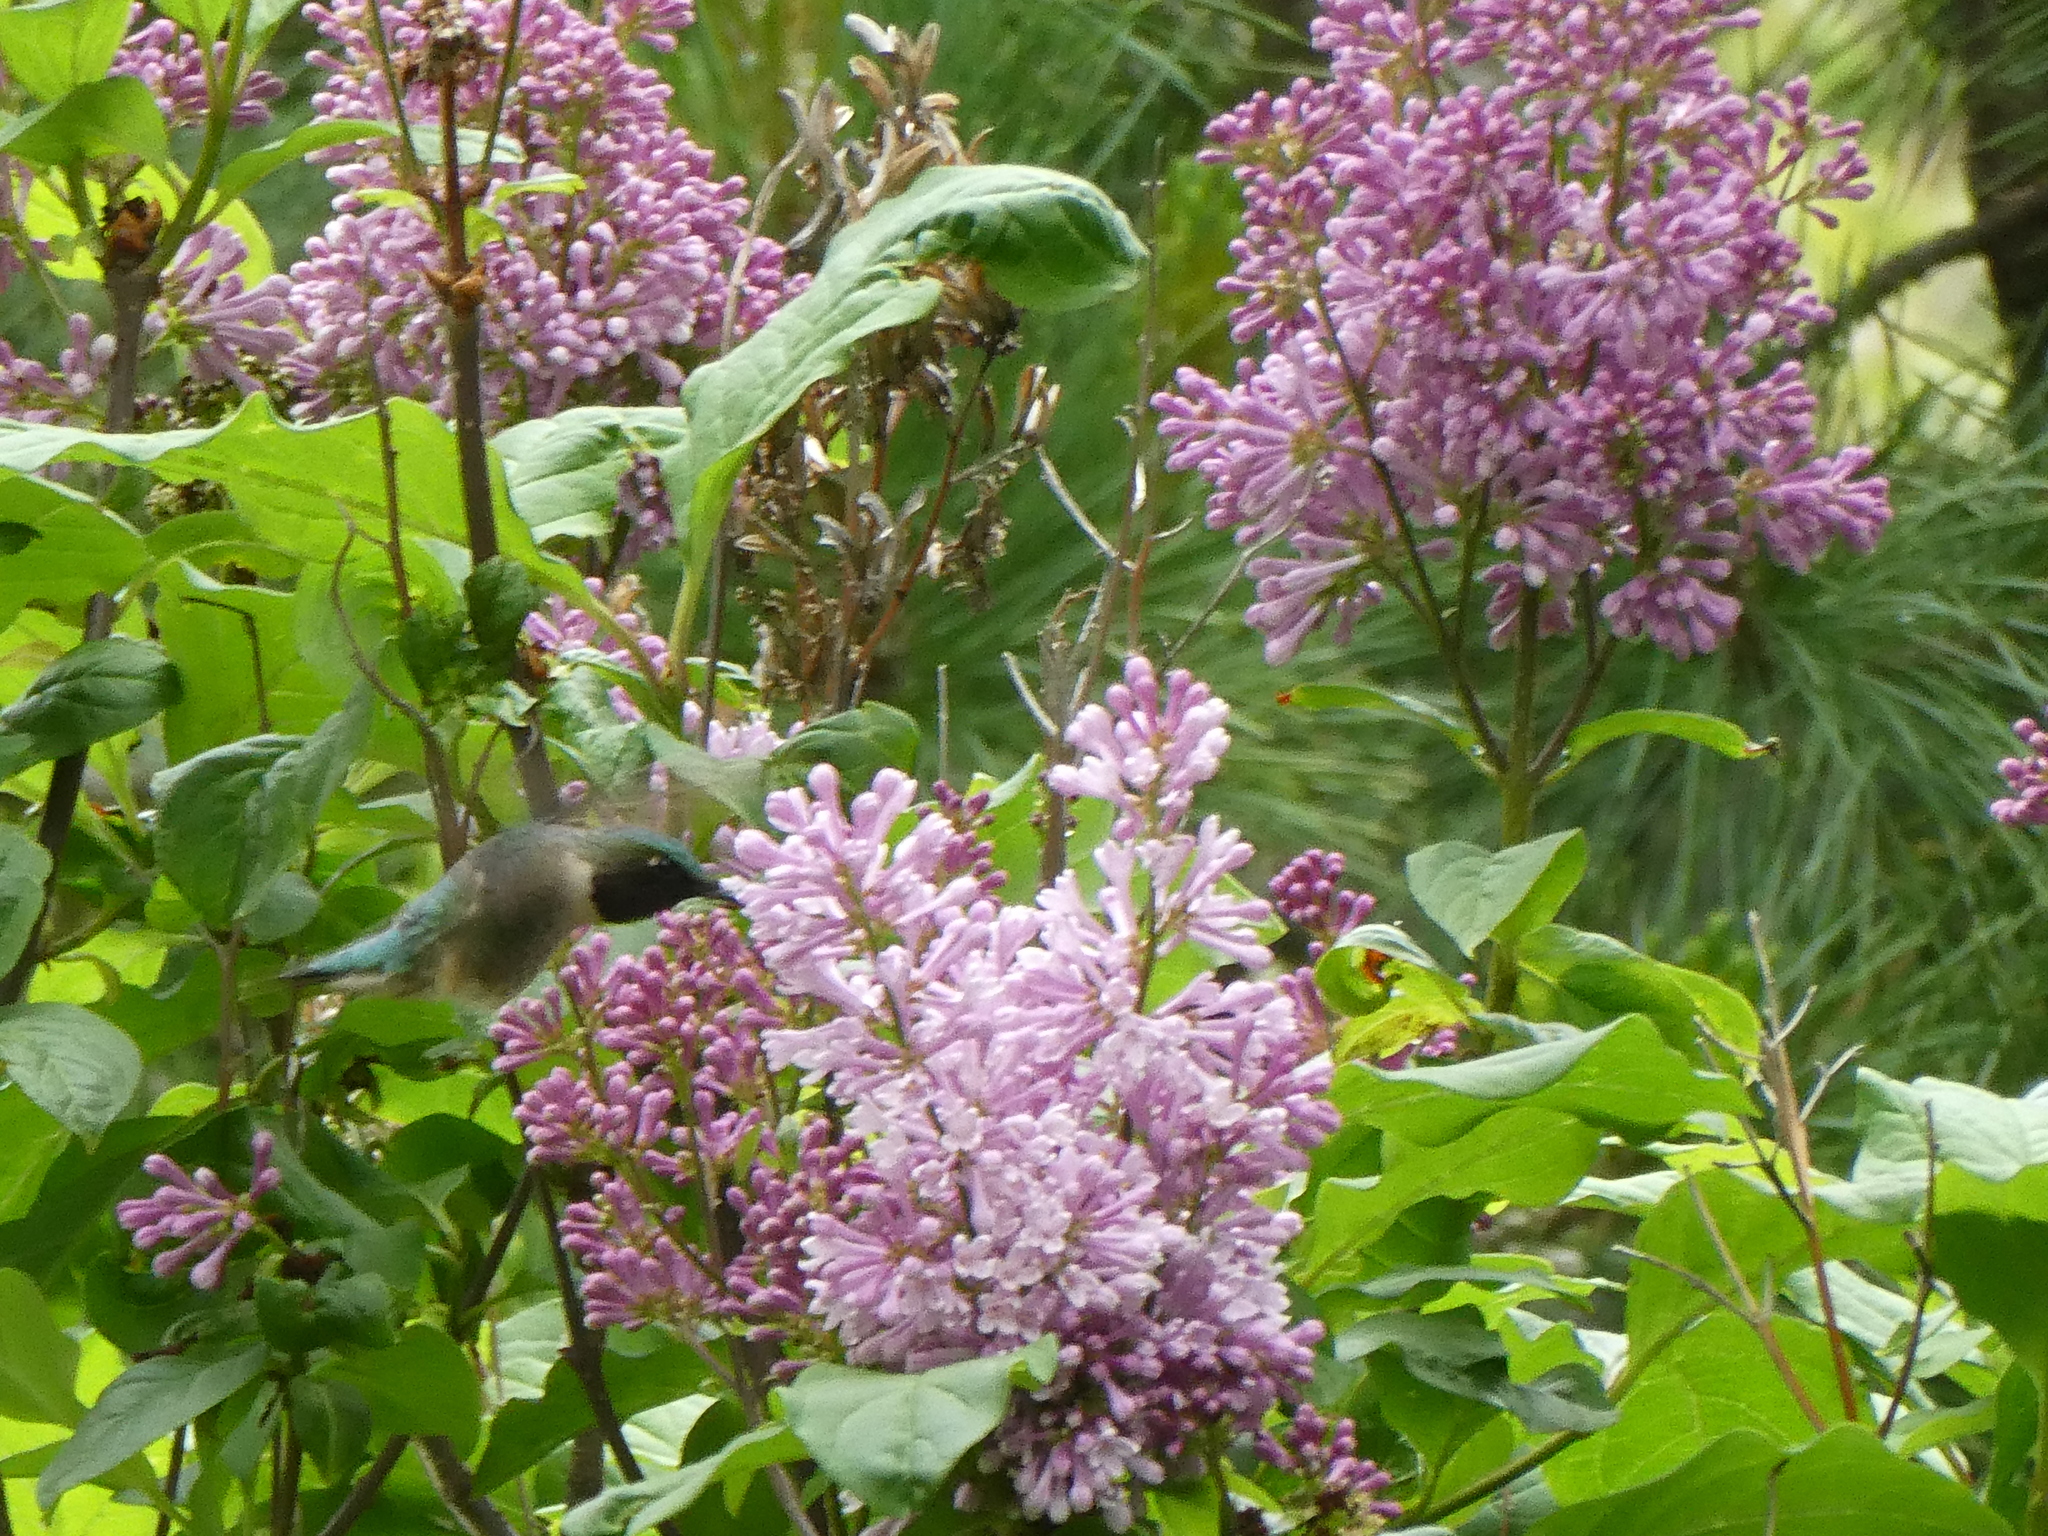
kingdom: Animalia
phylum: Chordata
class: Aves
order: Apodiformes
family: Trochilidae
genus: Archilochus
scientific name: Archilochus colubris
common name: Ruby-throated hummingbird
